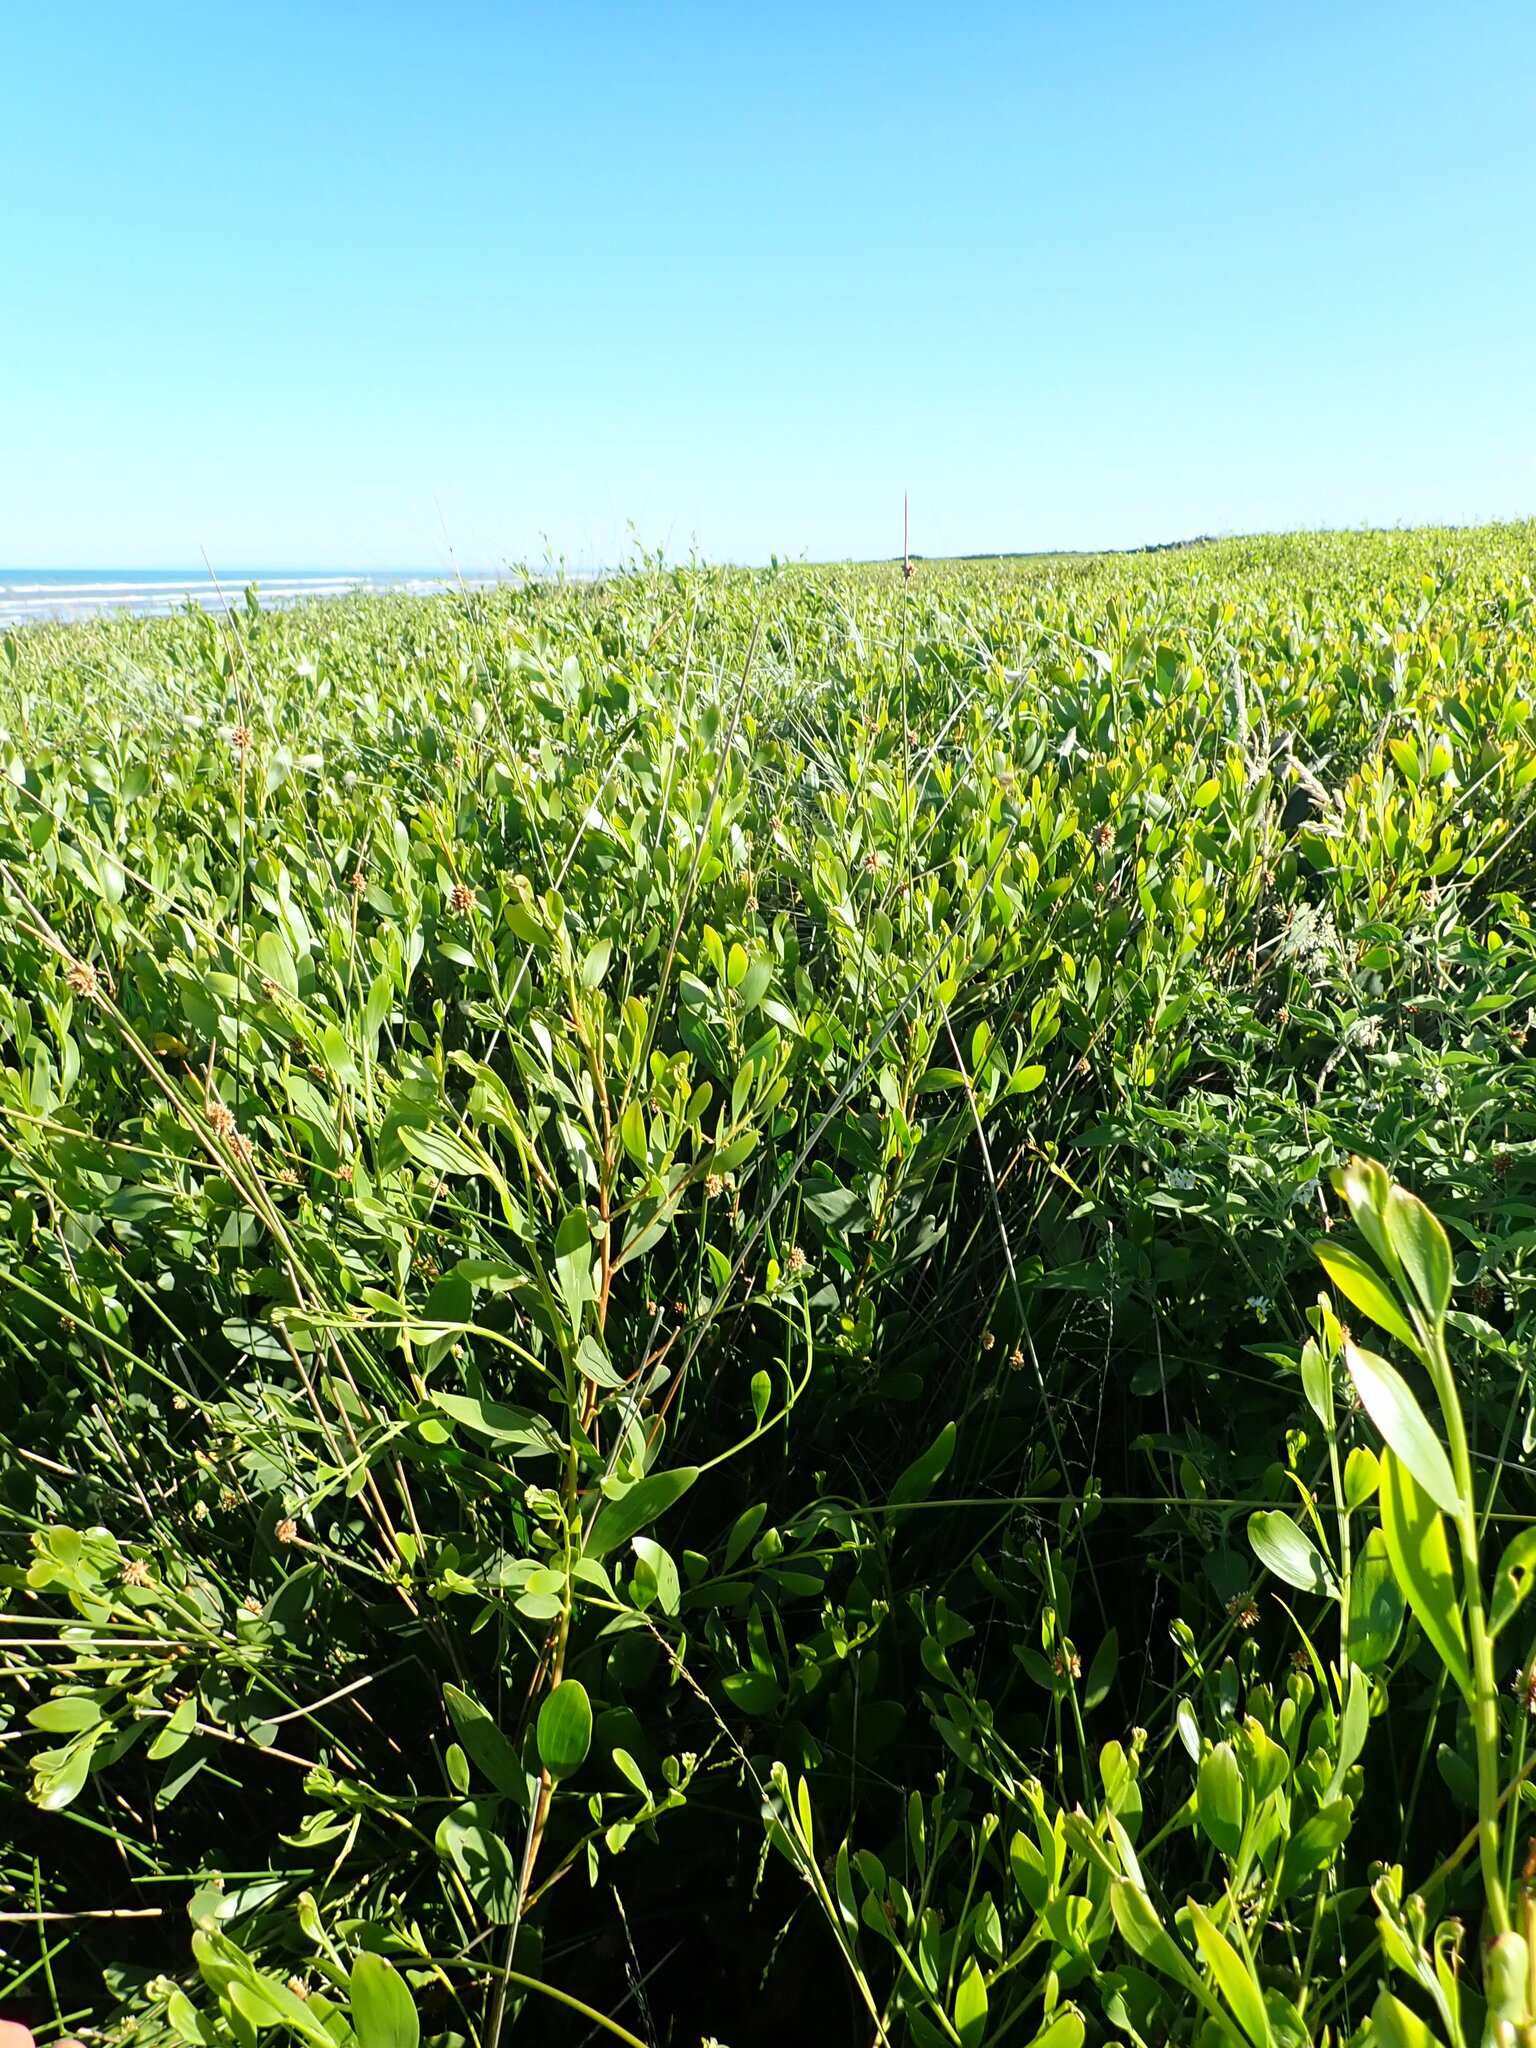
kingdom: Plantae
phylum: Tracheophyta
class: Magnoliopsida
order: Solanales
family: Solanaceae
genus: Solanum
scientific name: Solanum chenopodioides
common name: Tall nightshade
